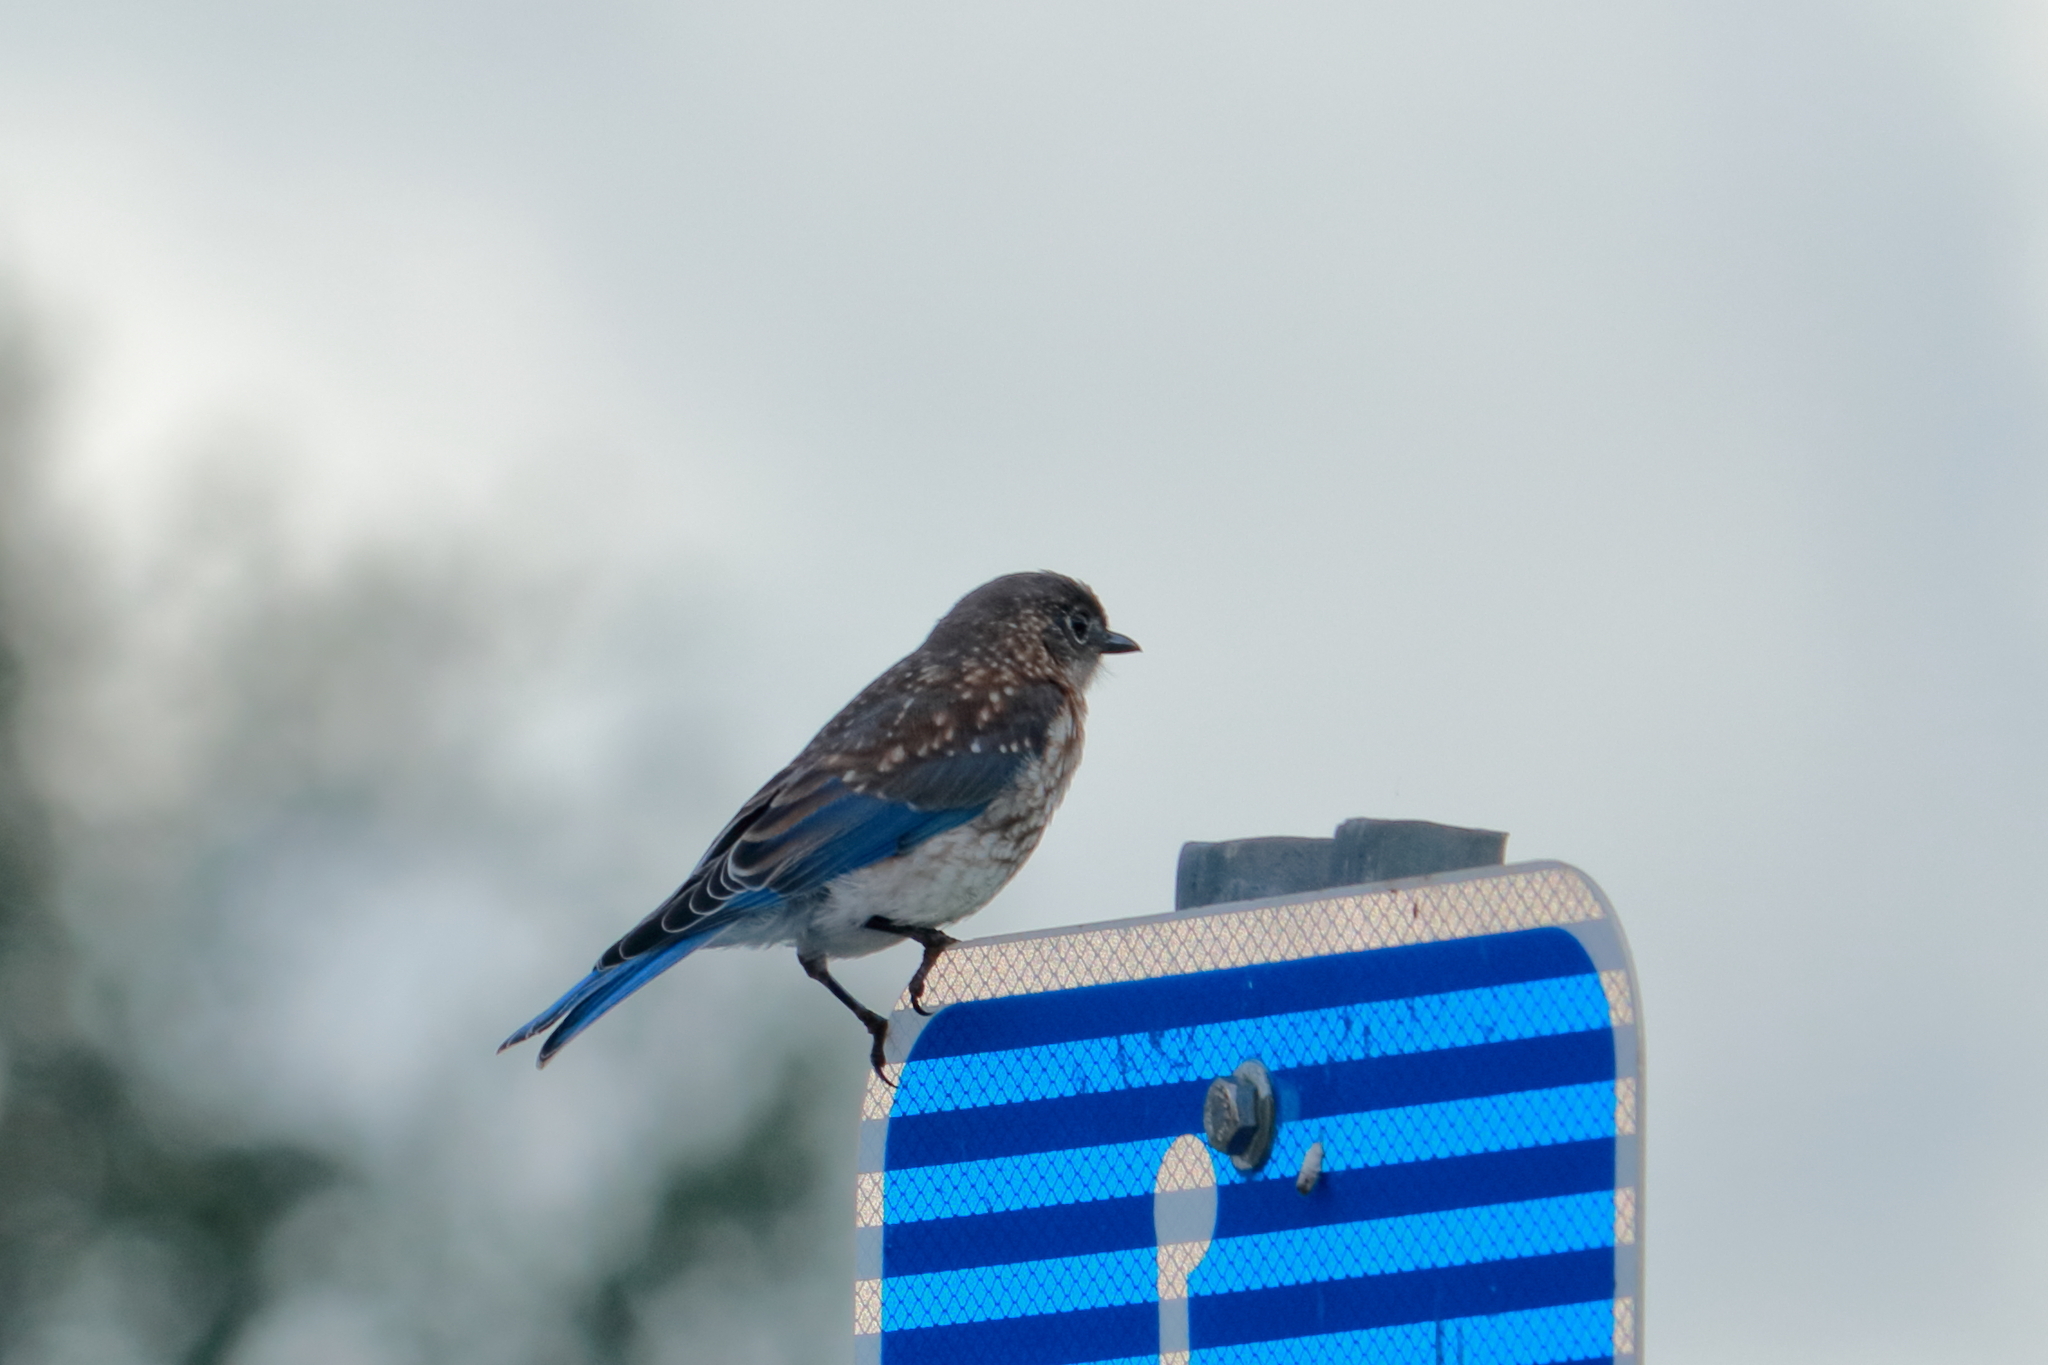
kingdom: Animalia
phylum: Chordata
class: Aves
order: Passeriformes
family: Turdidae
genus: Sialia
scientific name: Sialia sialis
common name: Eastern bluebird
